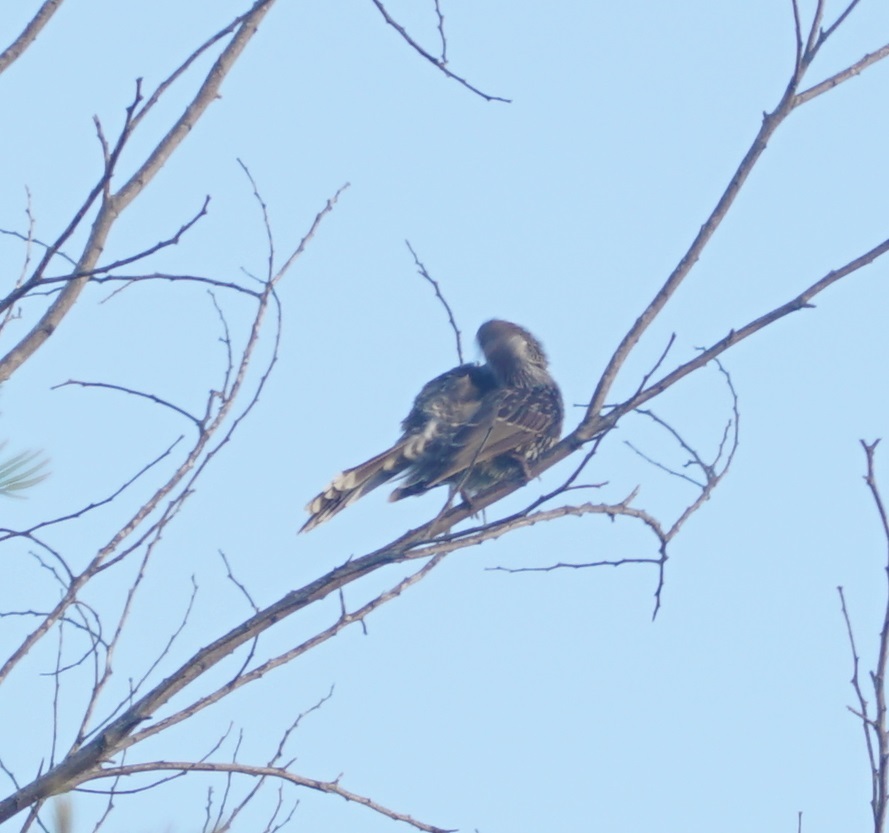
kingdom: Animalia
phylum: Chordata
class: Aves
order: Passeriformes
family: Meliphagidae
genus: Anthochaera
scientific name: Anthochaera chrysoptera
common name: Little wattlebird
